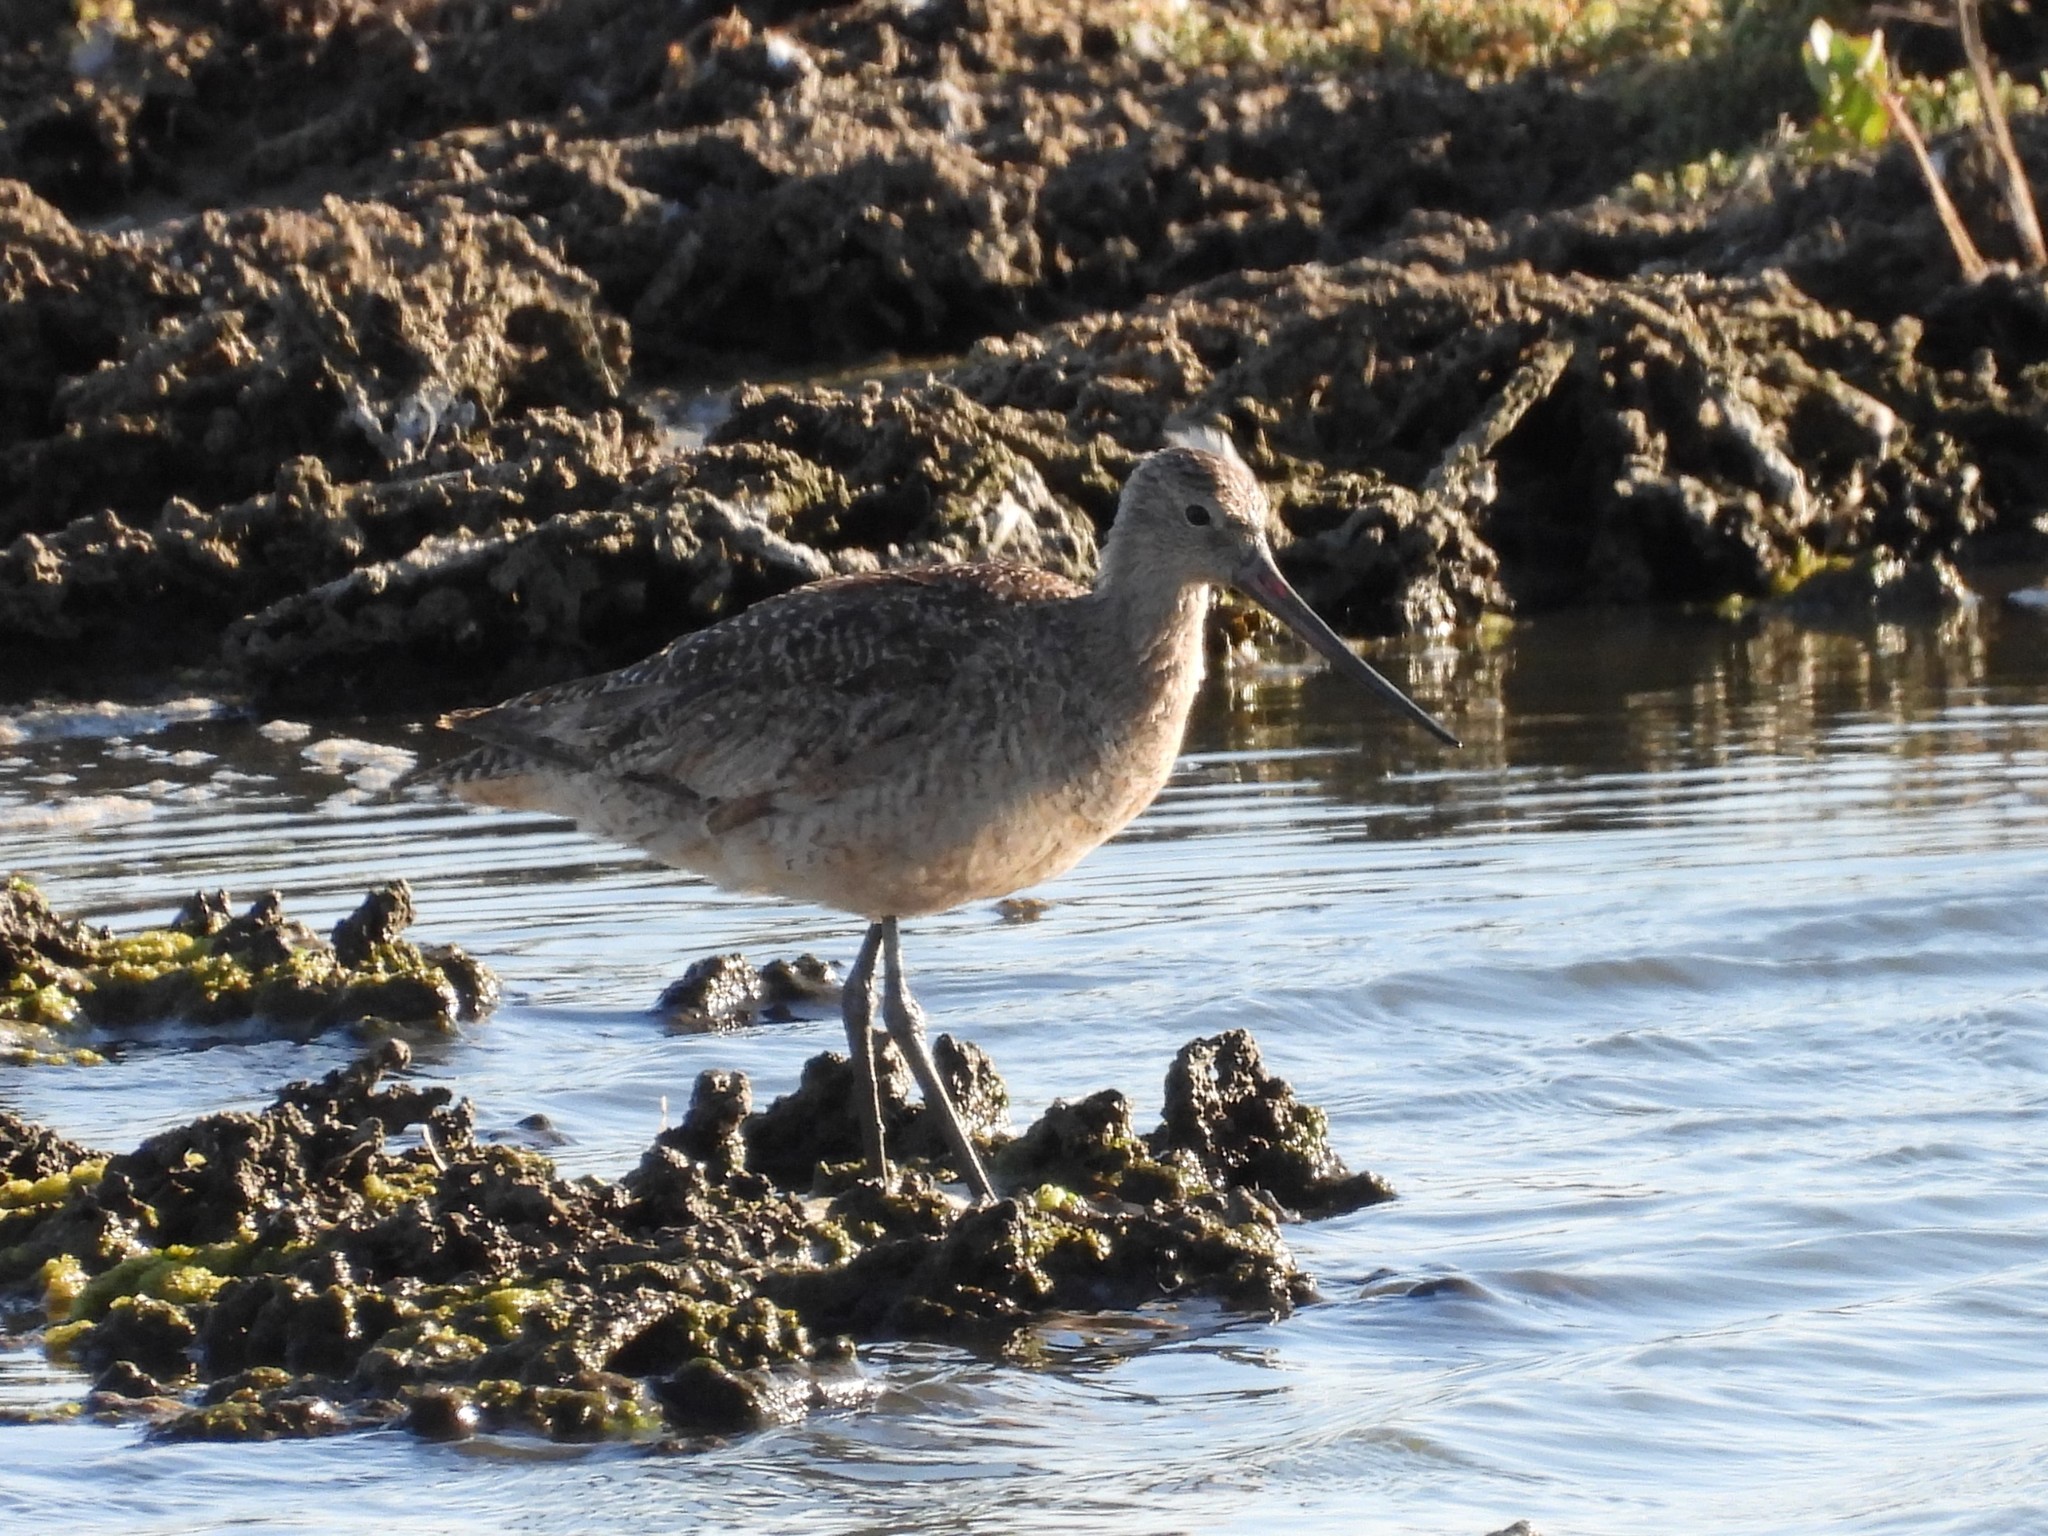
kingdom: Animalia
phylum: Chordata
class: Aves
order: Charadriiformes
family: Scolopacidae
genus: Limosa
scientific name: Limosa fedoa
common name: Marbled godwit
